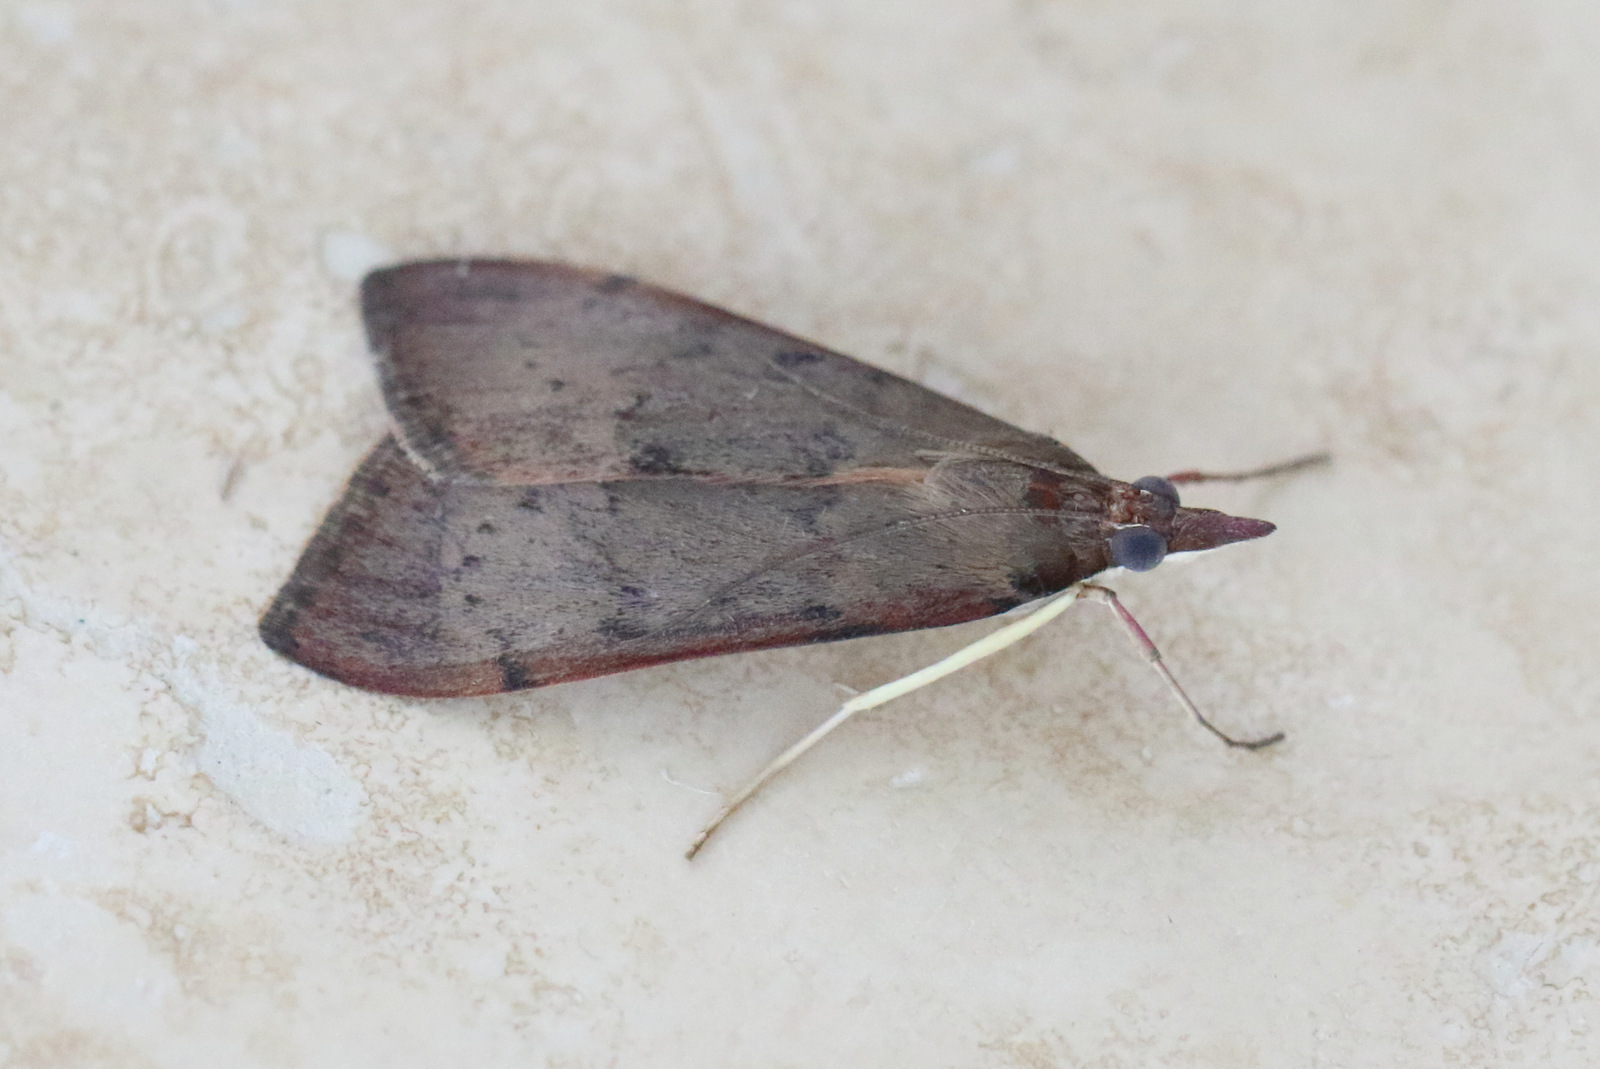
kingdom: Animalia
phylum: Arthropoda
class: Insecta
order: Lepidoptera
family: Crambidae
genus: Uresiphita
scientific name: Uresiphita ornithopteralis
